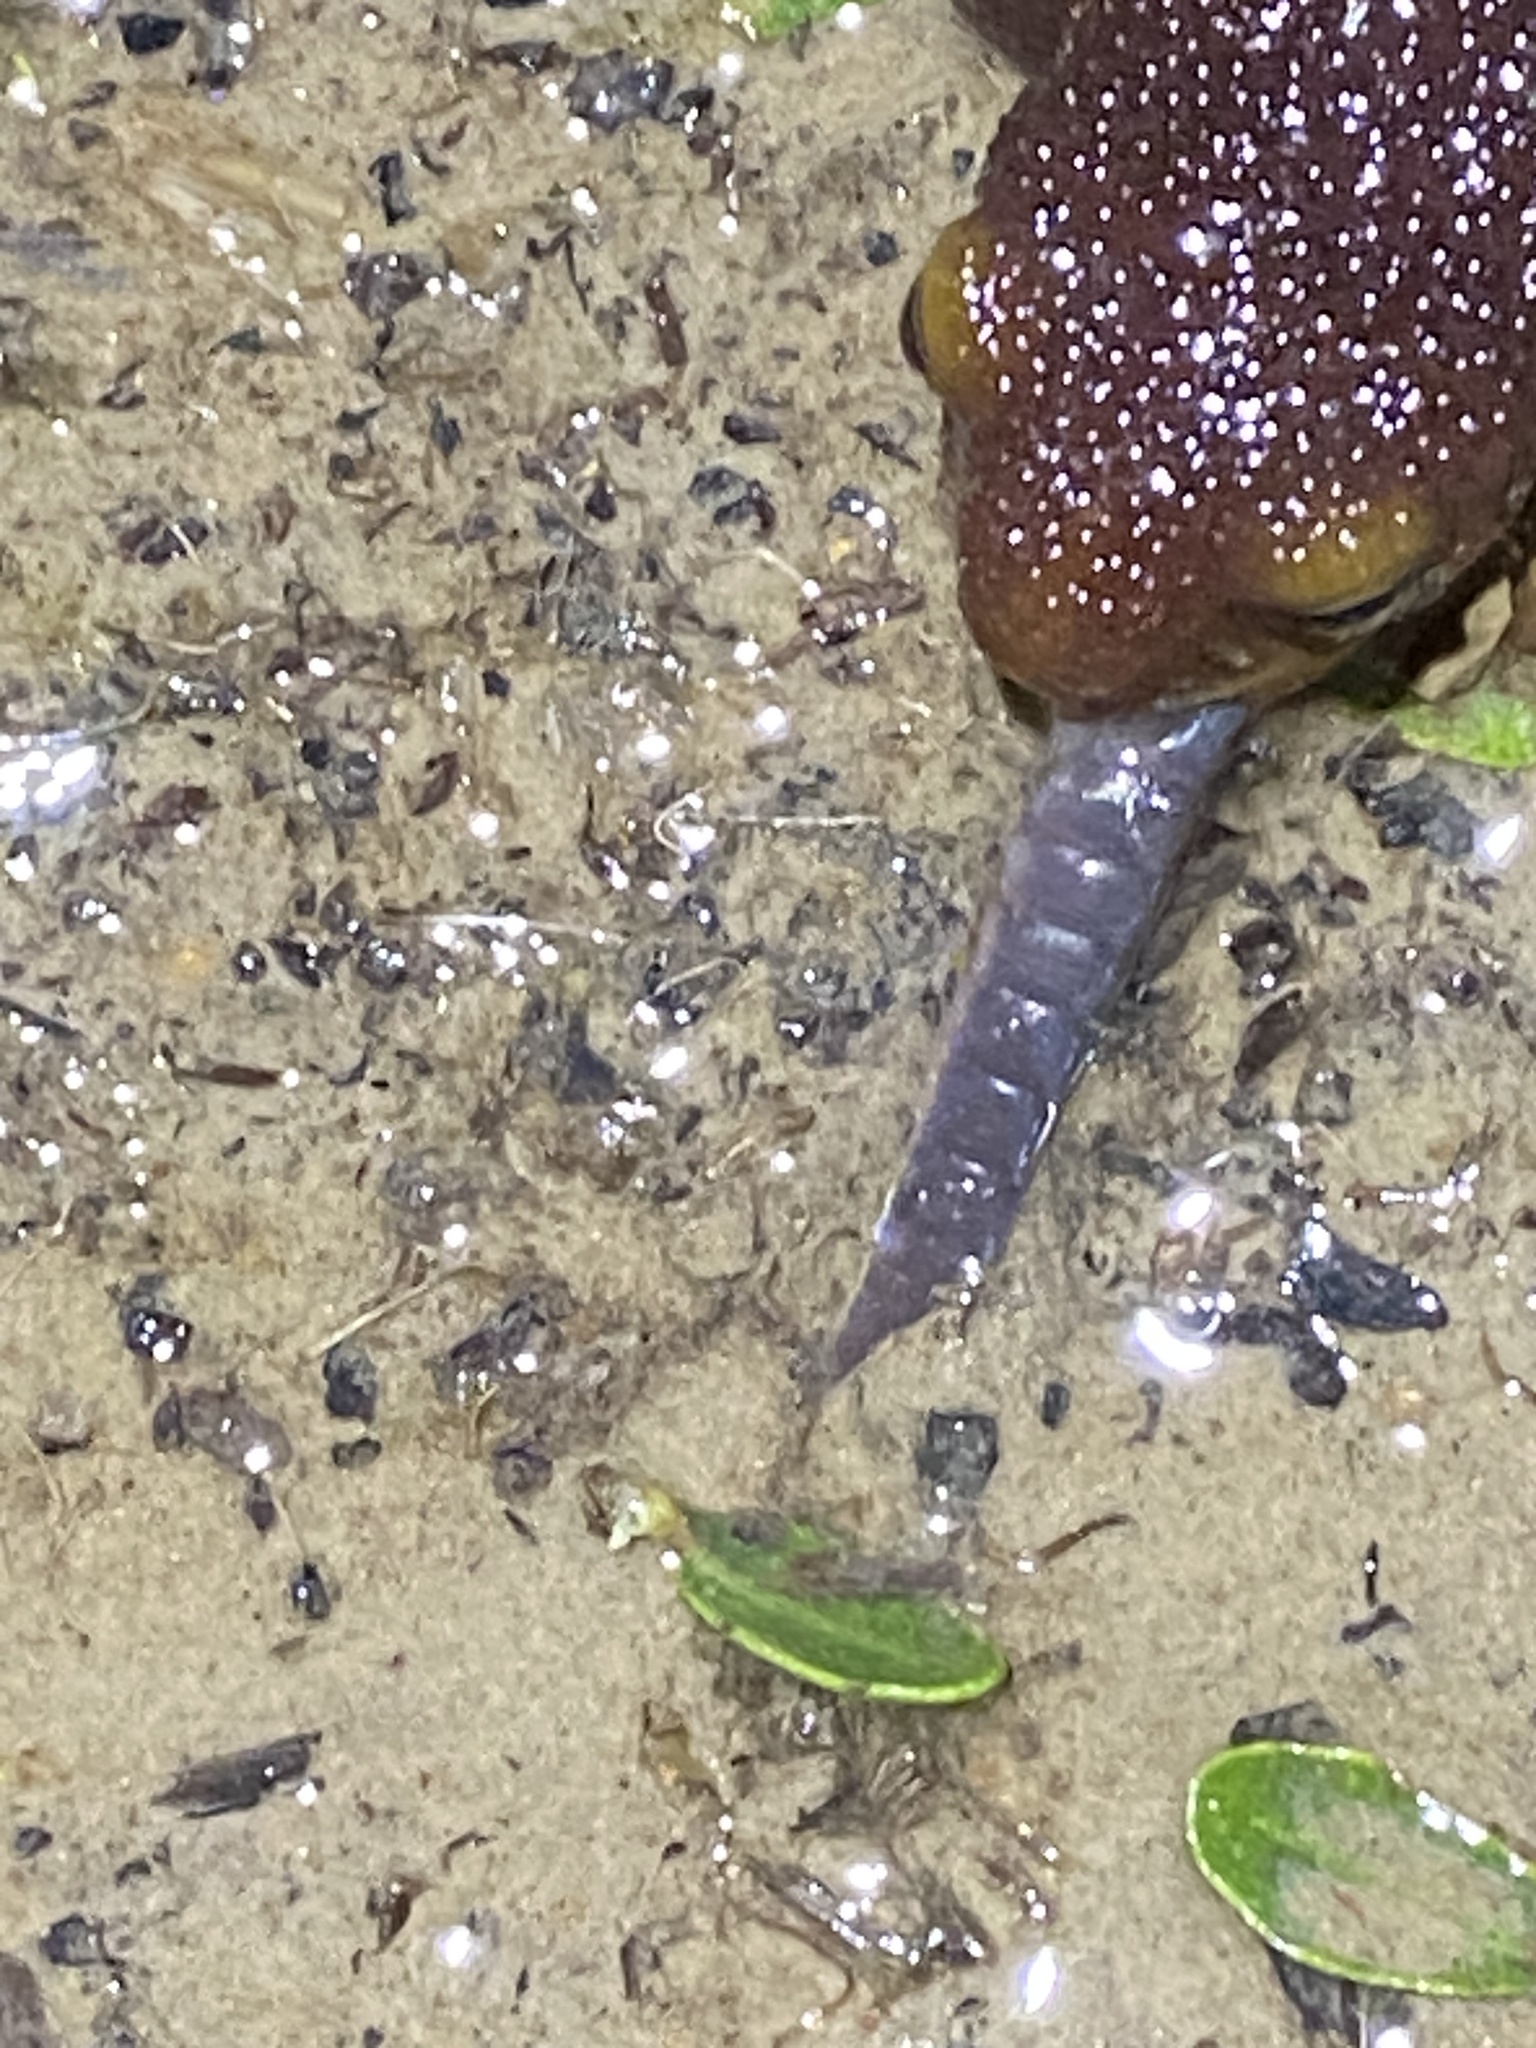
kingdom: Animalia
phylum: Chordata
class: Amphibia
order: Caudata
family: Salamandridae
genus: Taricha
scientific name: Taricha torosa
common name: California newt
